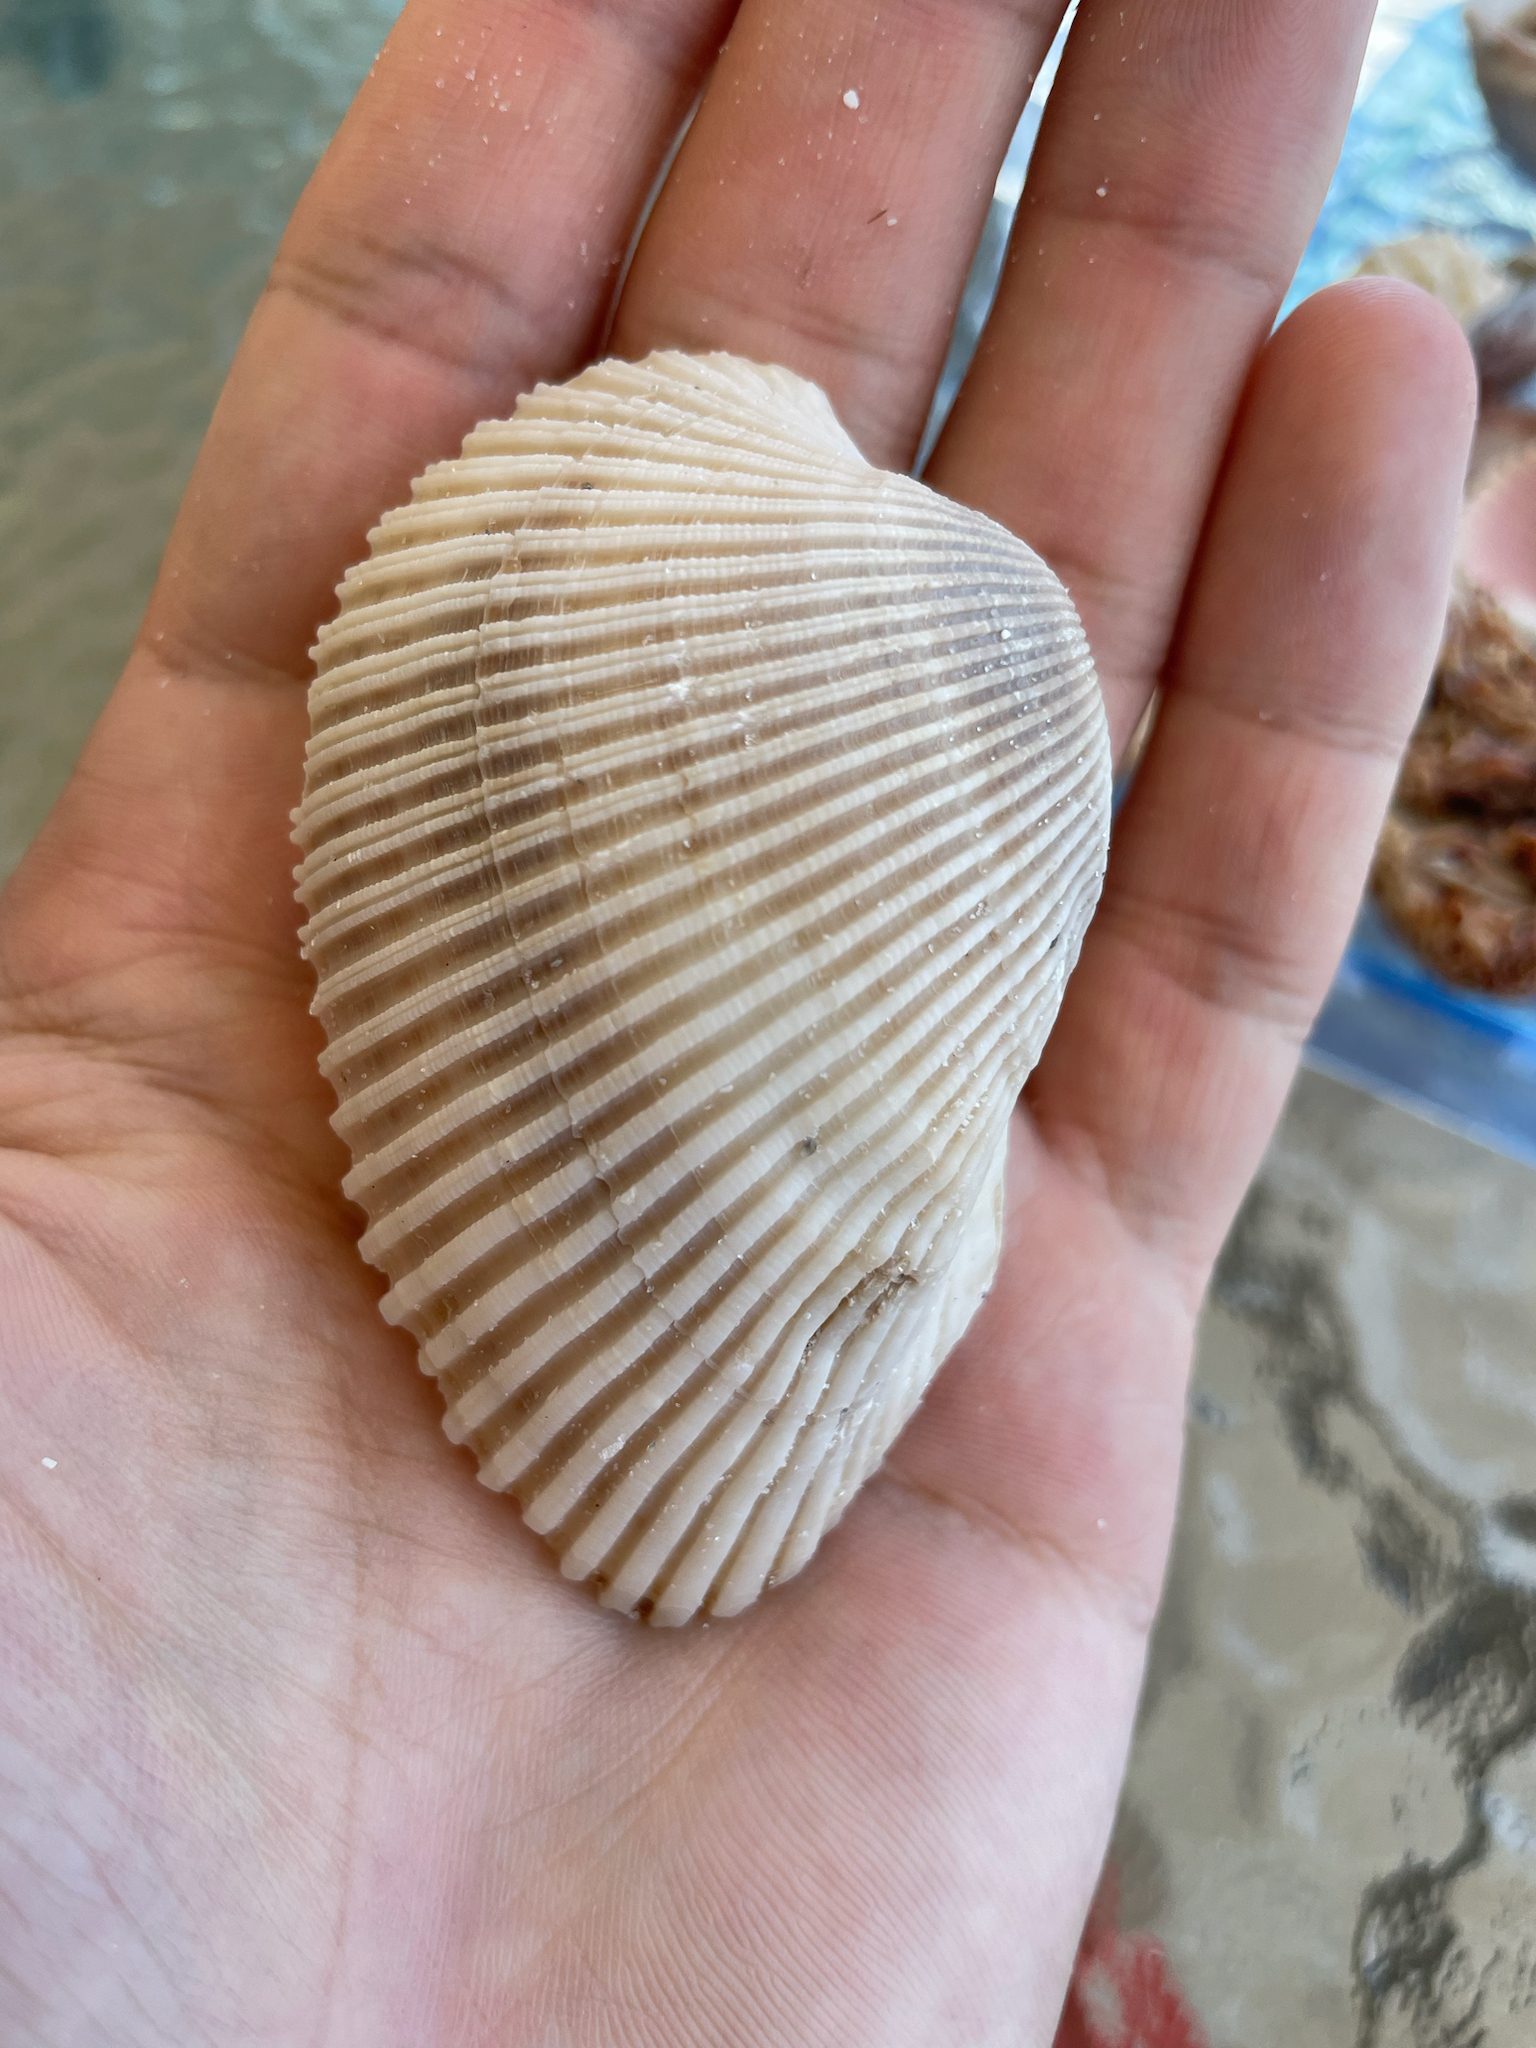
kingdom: Animalia
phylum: Mollusca
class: Bivalvia
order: Arcida
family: Arcidae
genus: Anadara
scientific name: Anadara secticostata
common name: Cut-ribbed ark
